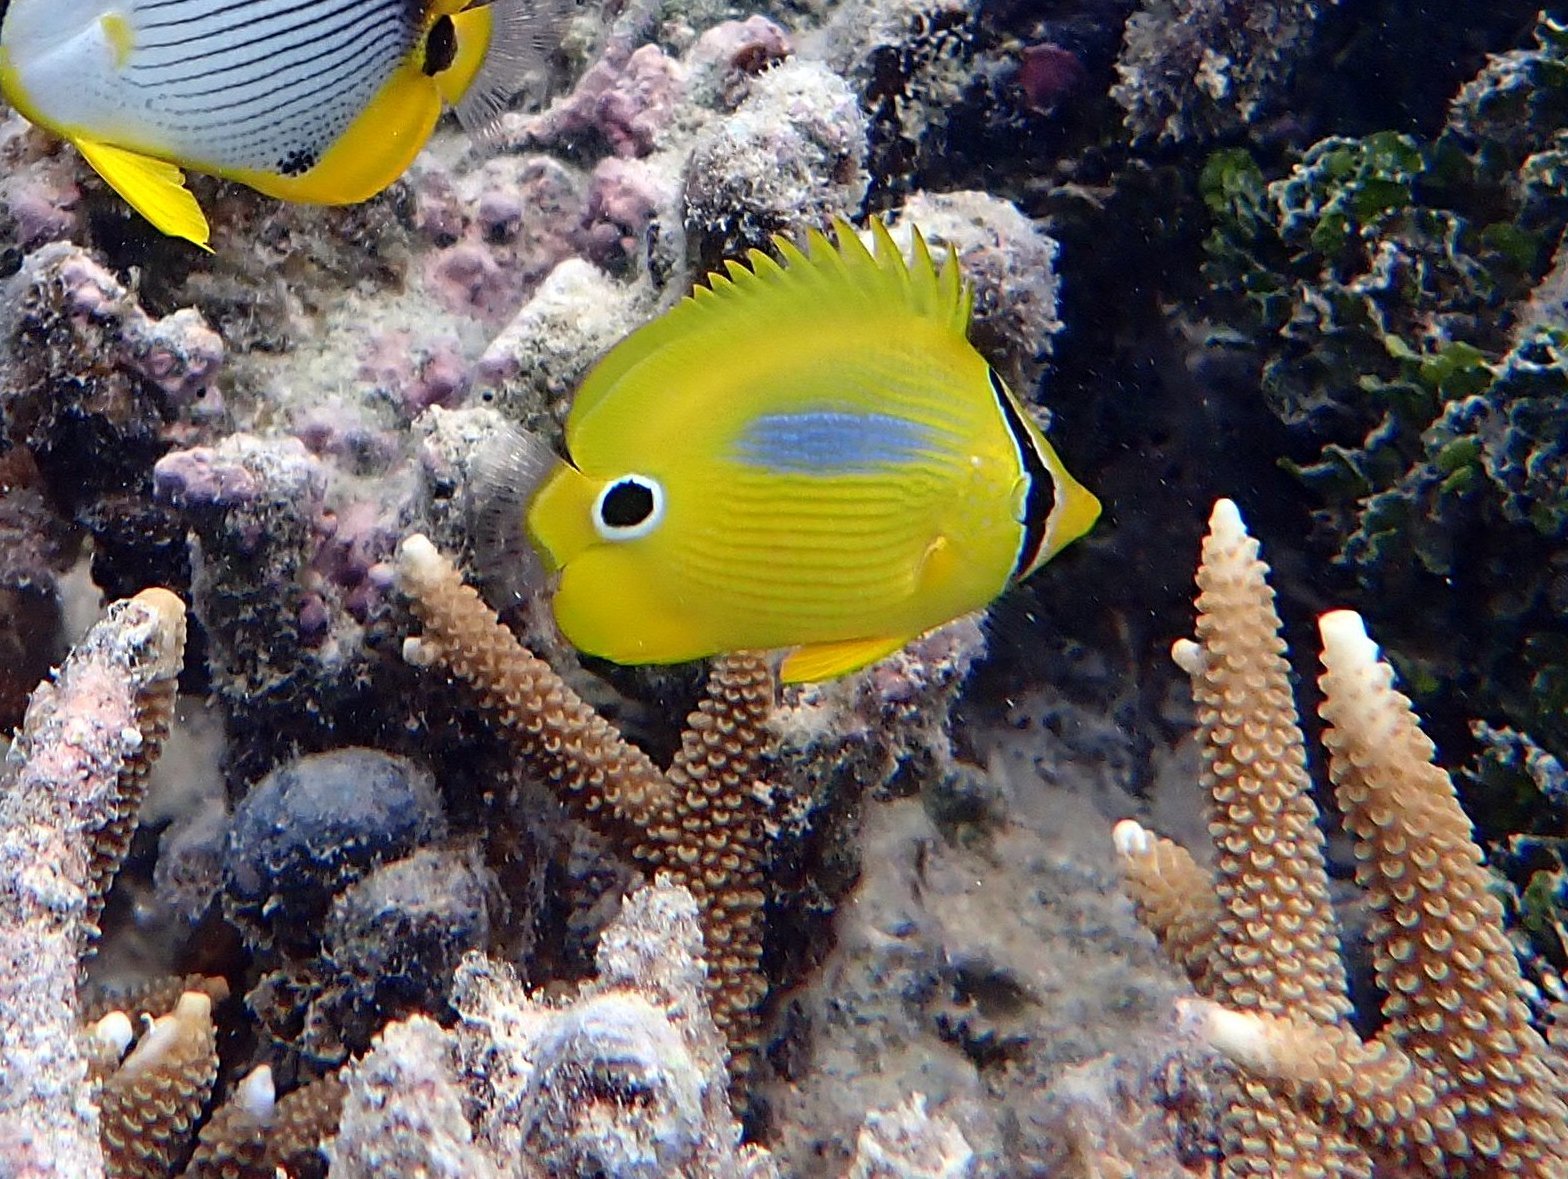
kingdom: Animalia
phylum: Chordata
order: Perciformes
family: Chaetodontidae
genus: Chaetodon
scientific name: Chaetodon plebeius
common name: Bluespot butterflyfish
